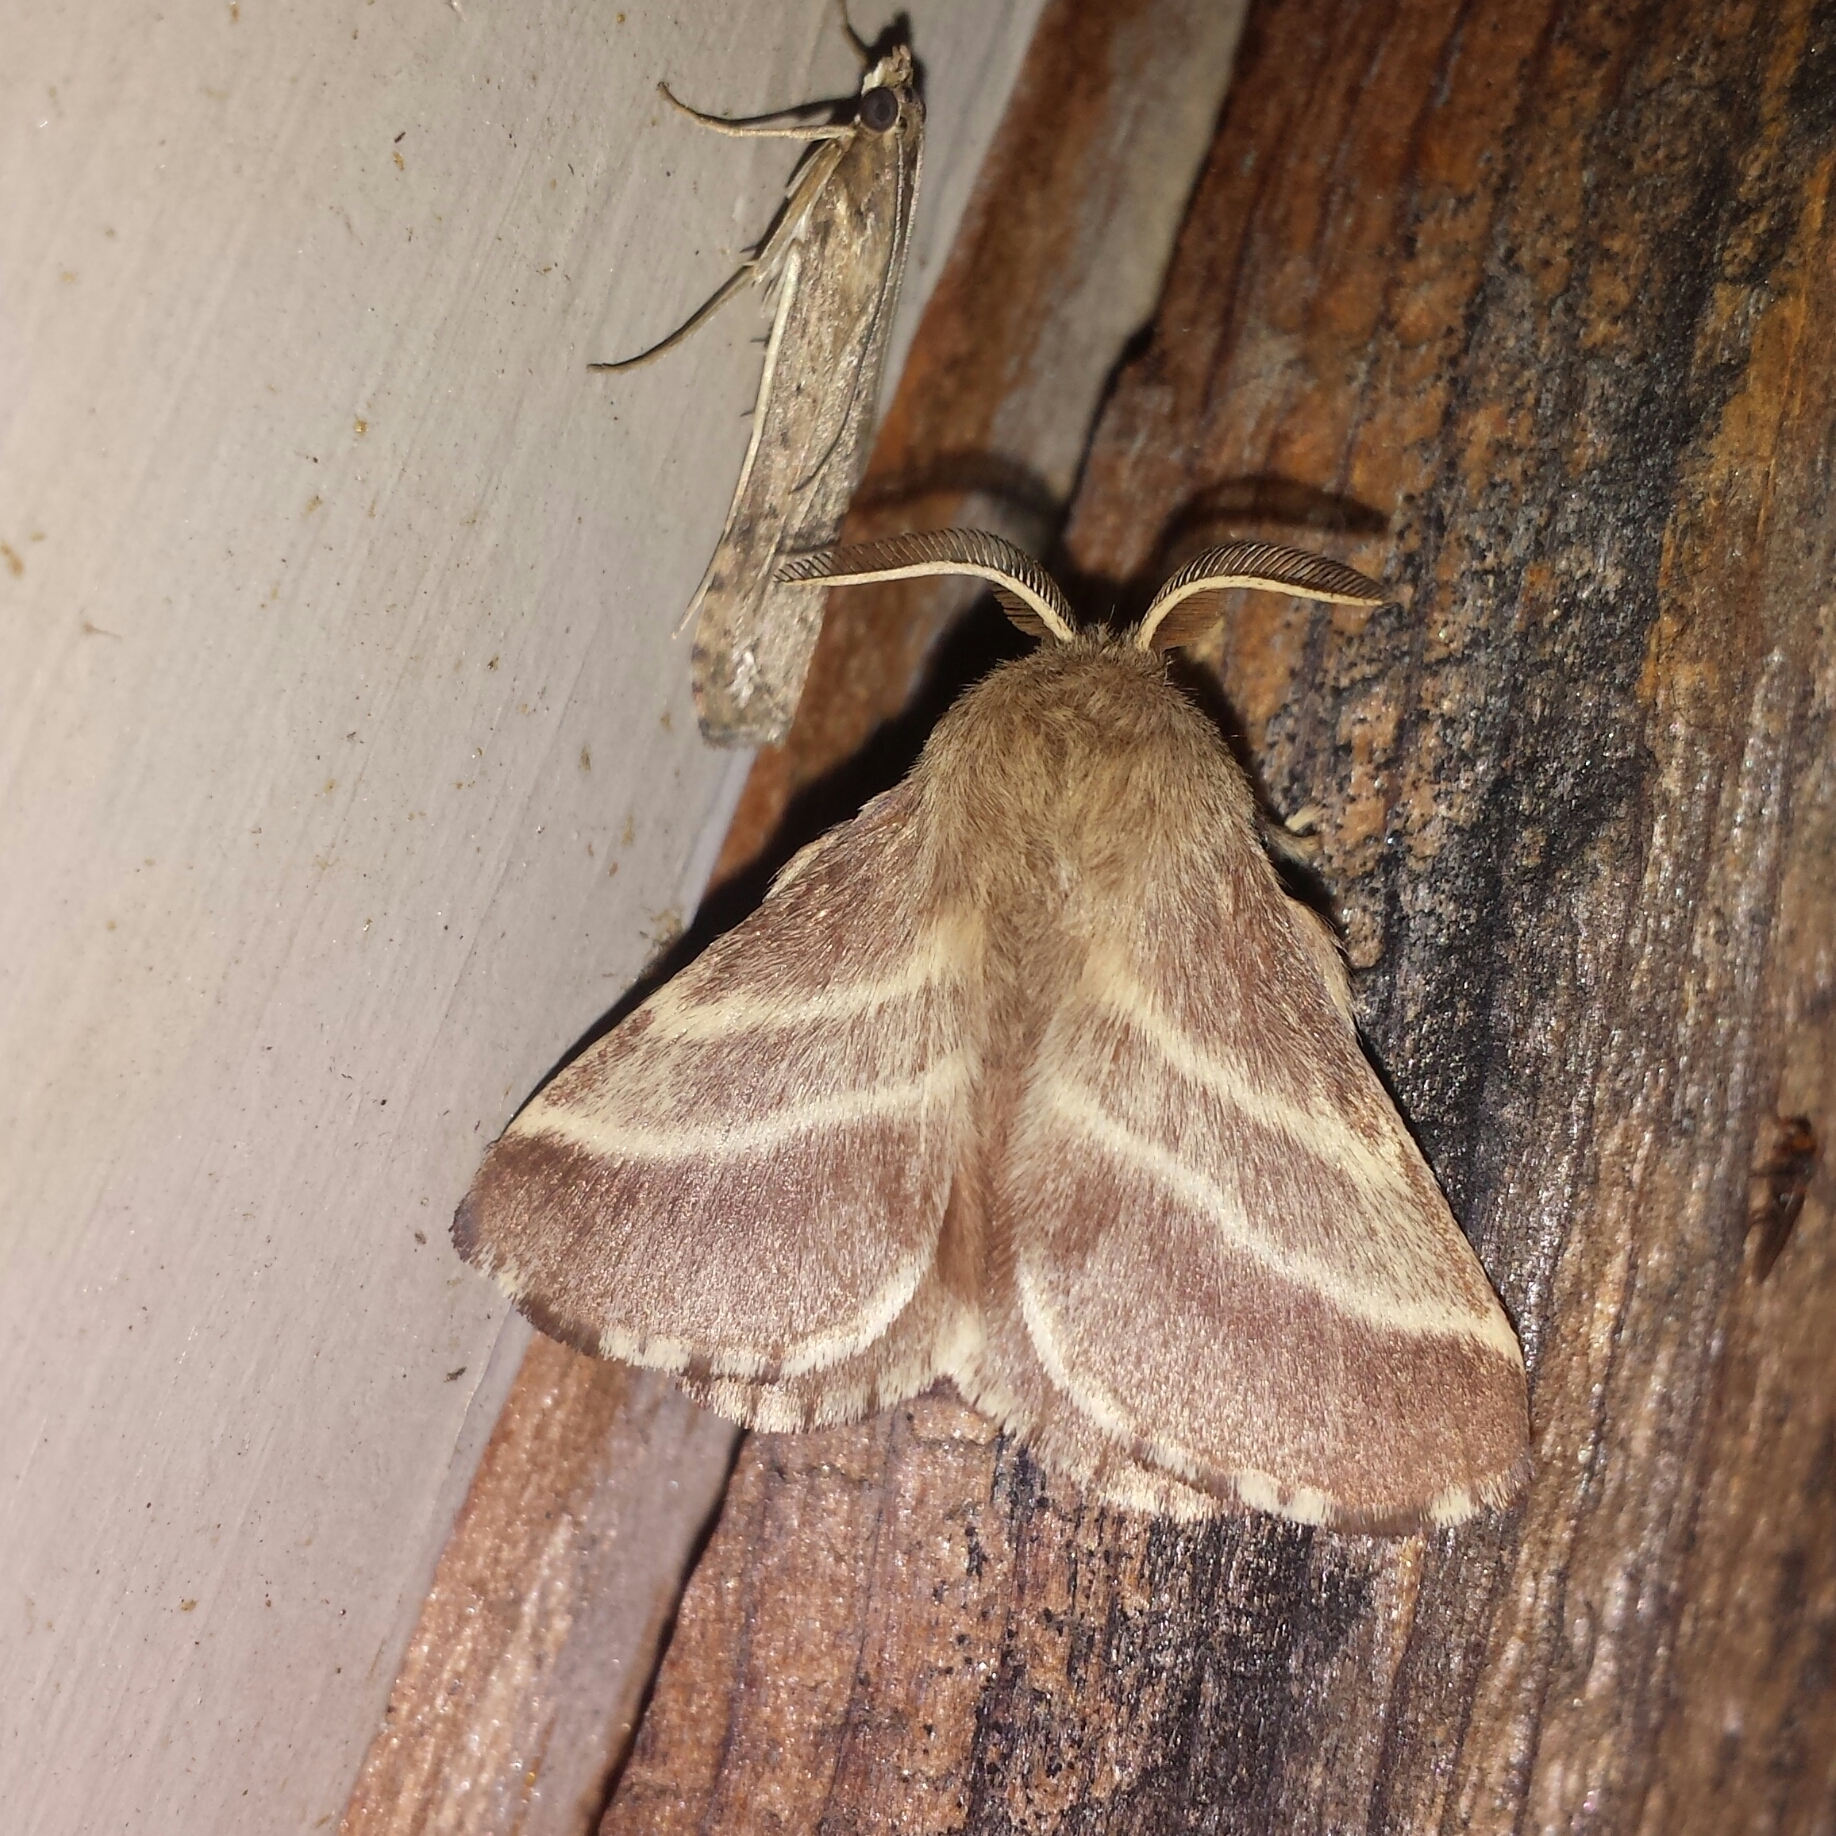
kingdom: Animalia
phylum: Arthropoda
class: Insecta
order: Lepidoptera
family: Lasiocampidae
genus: Malacosoma
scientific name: Malacosoma americana
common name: Eastern tent caterpillar moth
